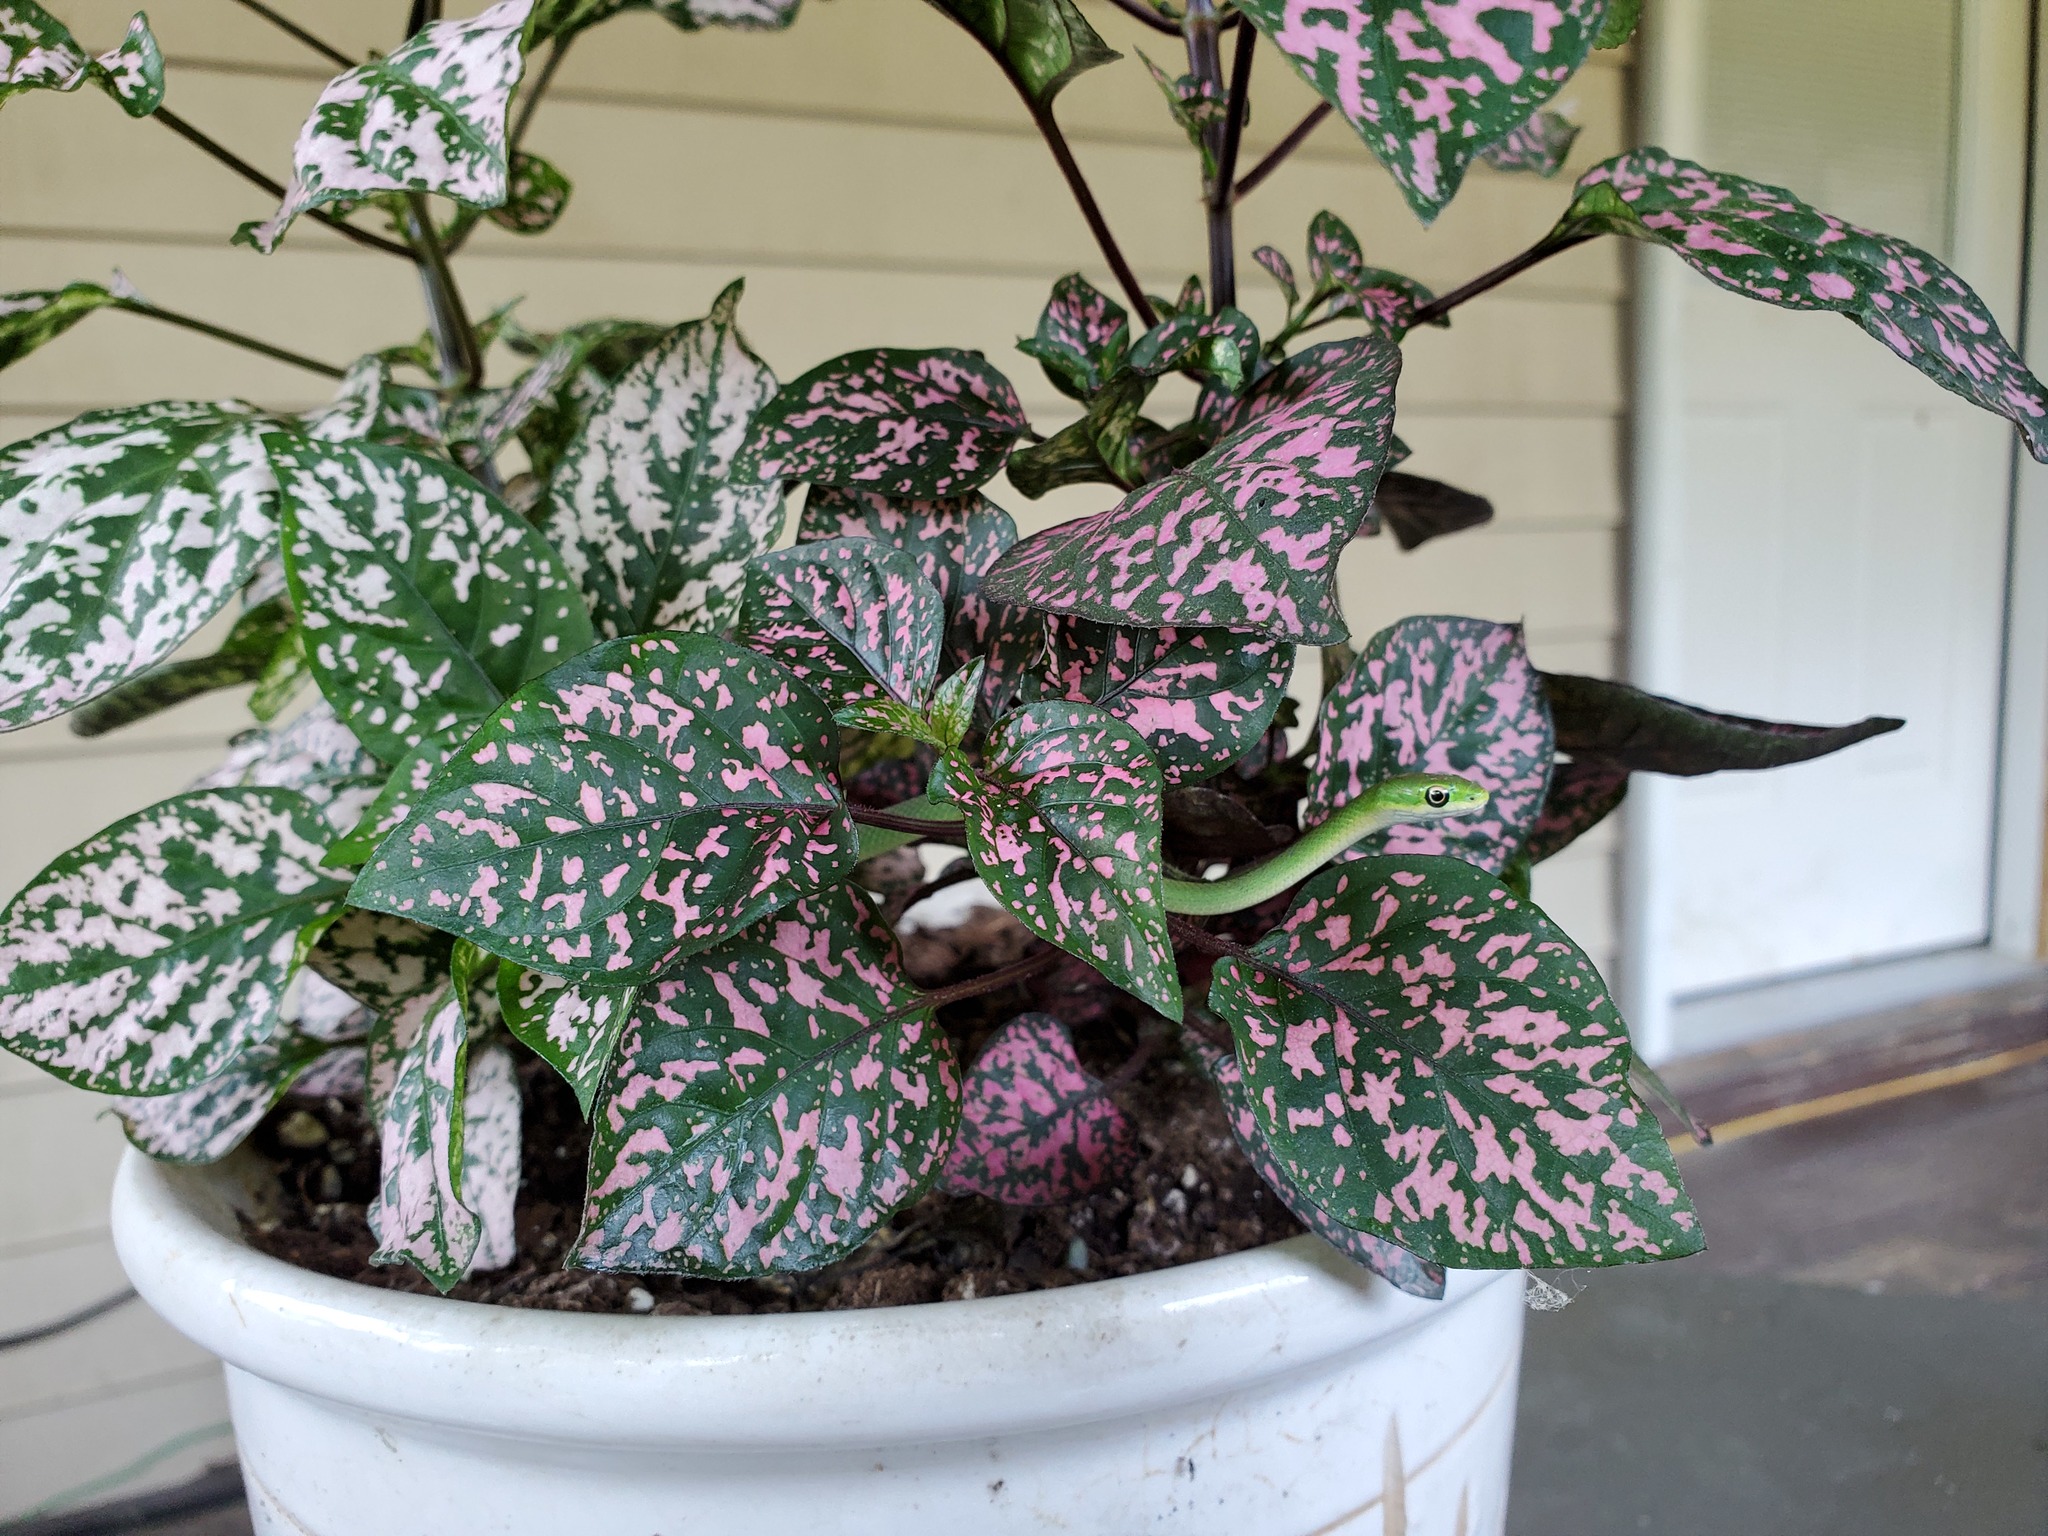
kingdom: Animalia
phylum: Chordata
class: Squamata
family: Colubridae
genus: Opheodrys
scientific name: Opheodrys aestivus
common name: Rough greensnake
